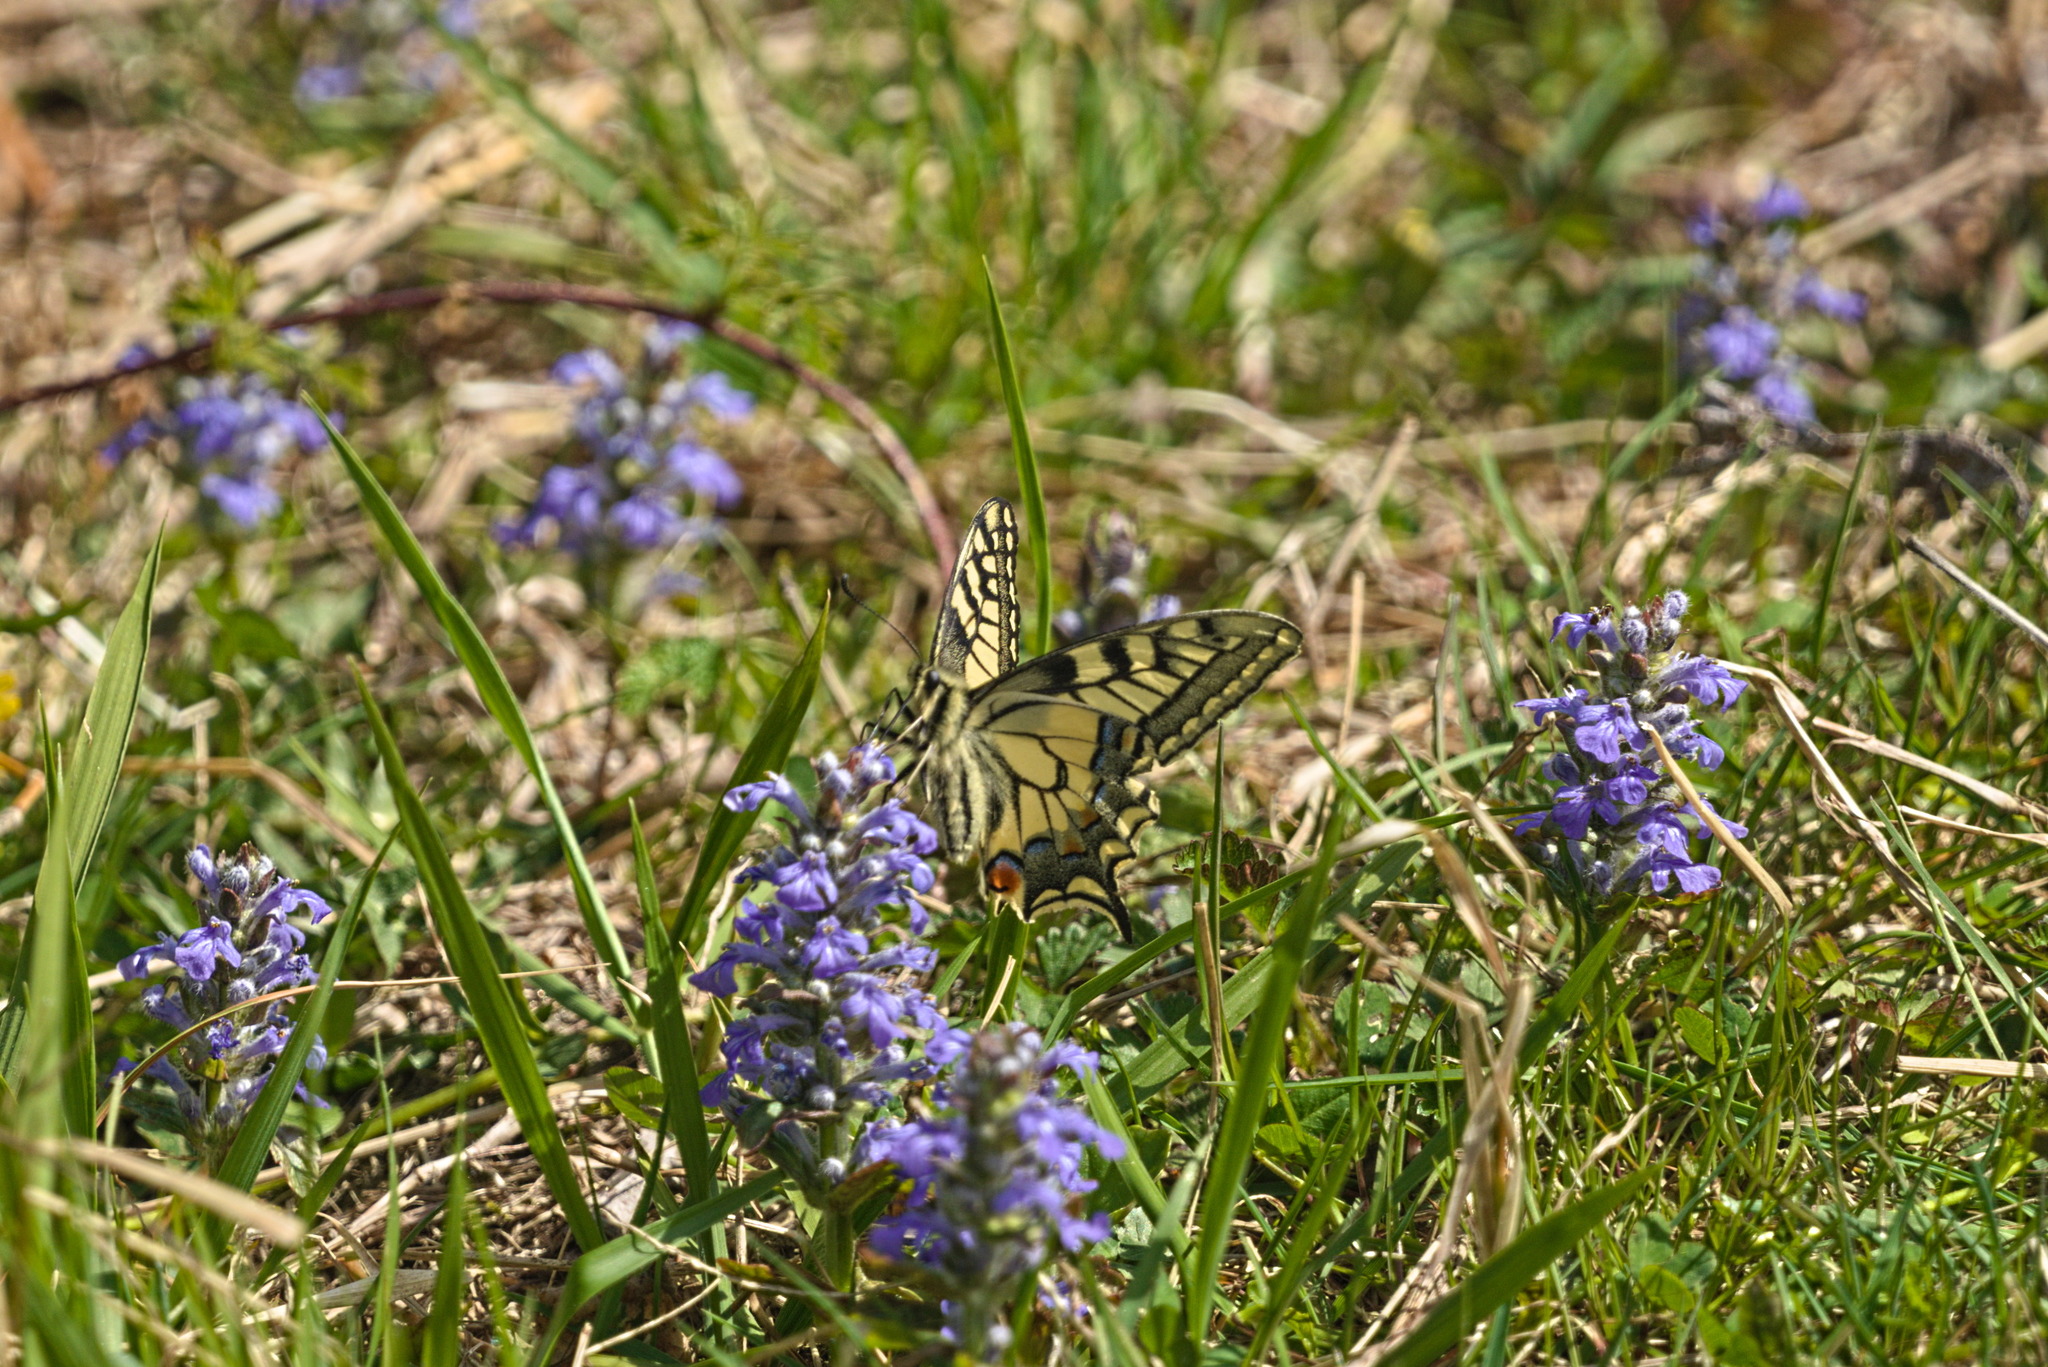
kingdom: Animalia
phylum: Arthropoda
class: Insecta
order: Lepidoptera
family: Papilionidae
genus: Papilio
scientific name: Papilio machaon
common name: Swallowtail
